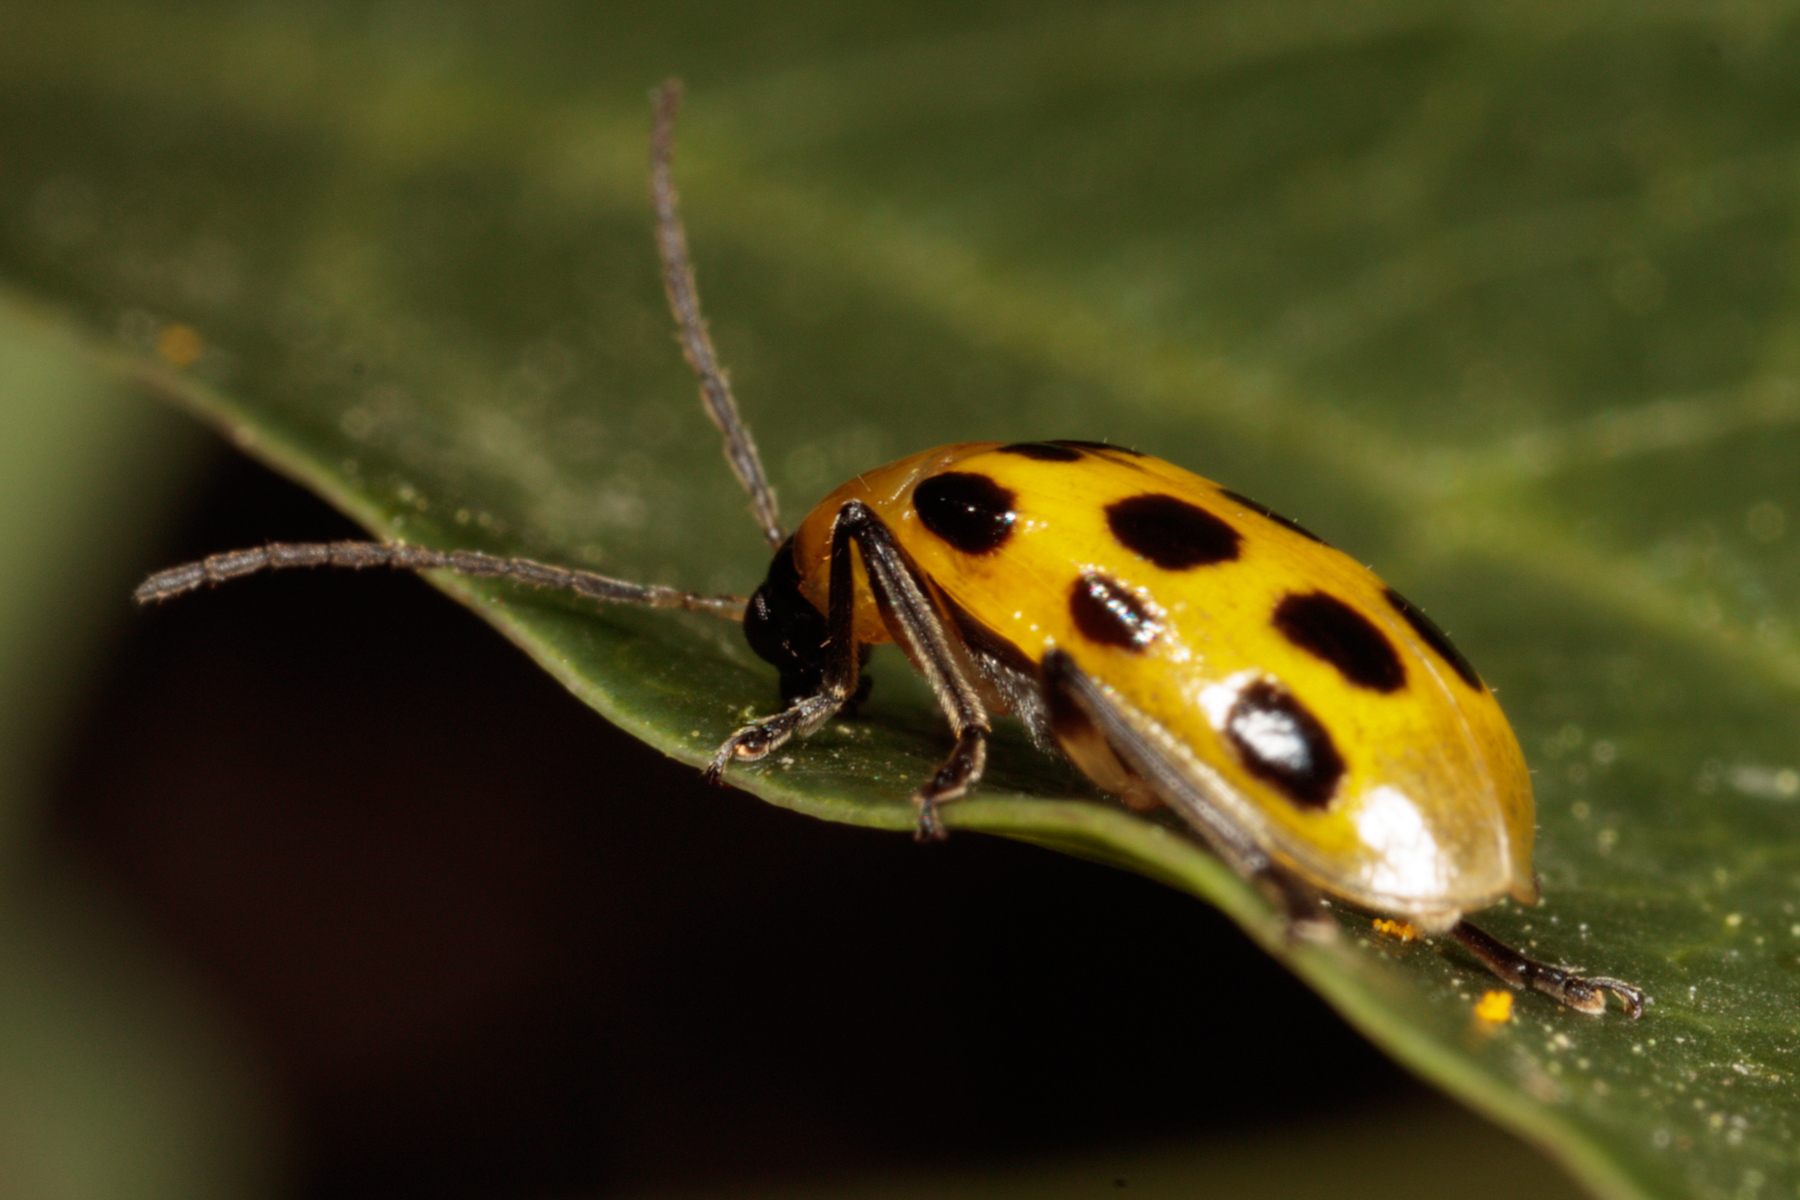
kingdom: Animalia
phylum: Arthropoda
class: Insecta
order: Coleoptera
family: Chrysomelidae
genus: Diabrotica
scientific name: Diabrotica undecimpunctata
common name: Spotted cucumber beetle
